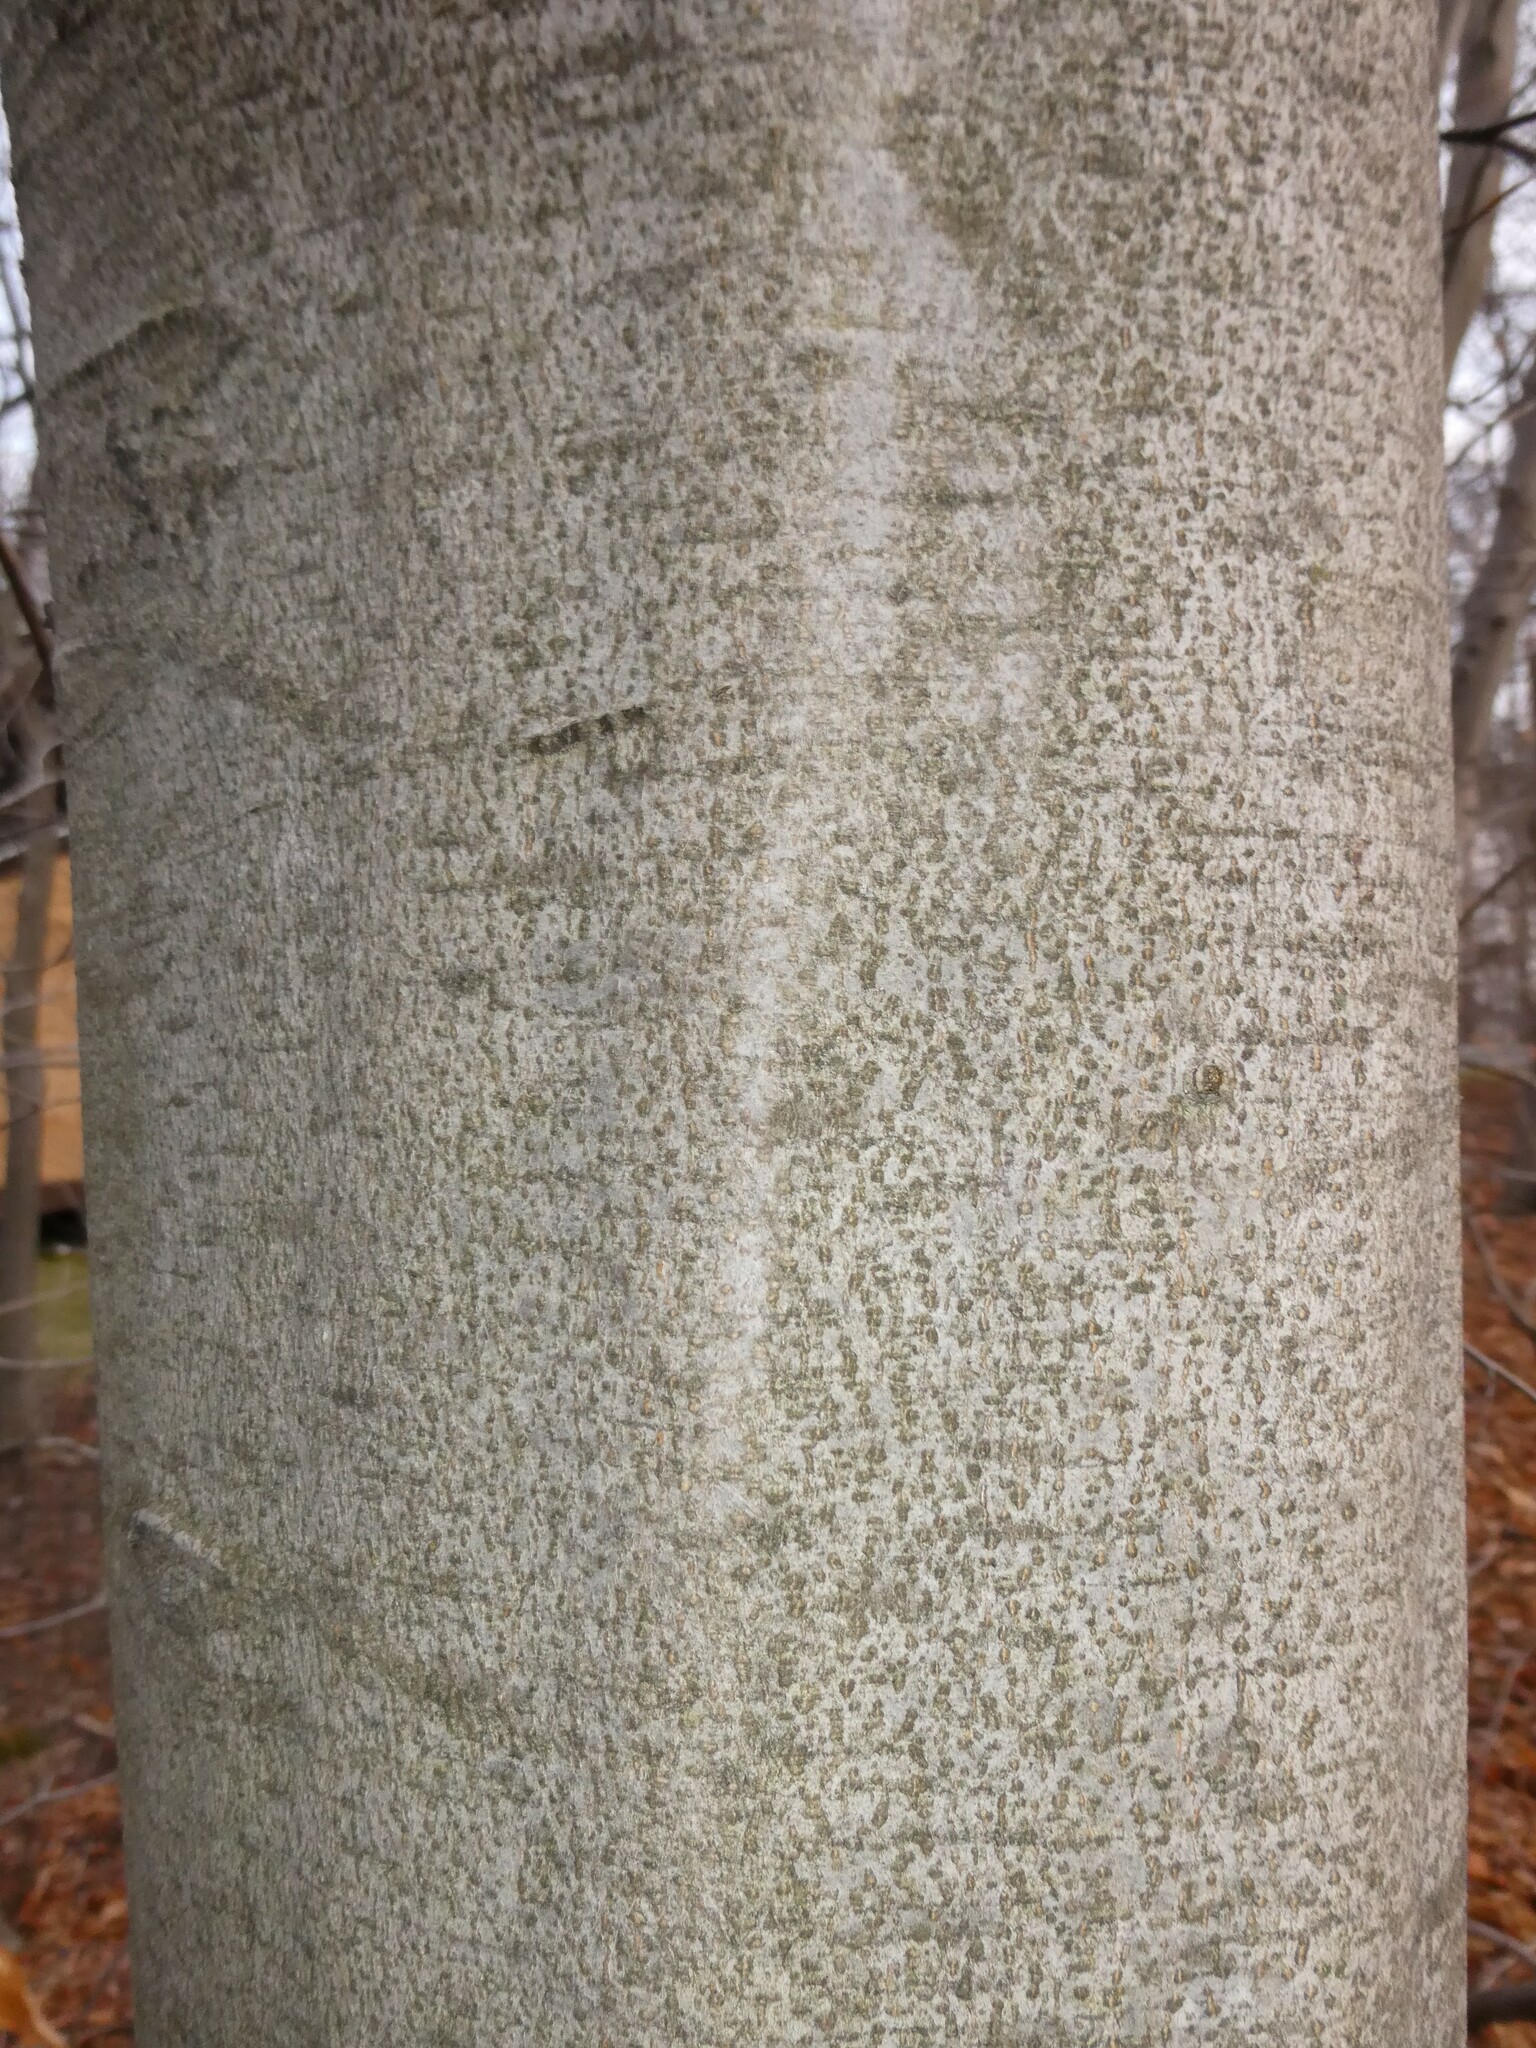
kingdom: Plantae
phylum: Tracheophyta
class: Magnoliopsida
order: Fagales
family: Fagaceae
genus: Fagus
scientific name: Fagus grandifolia
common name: American beech
